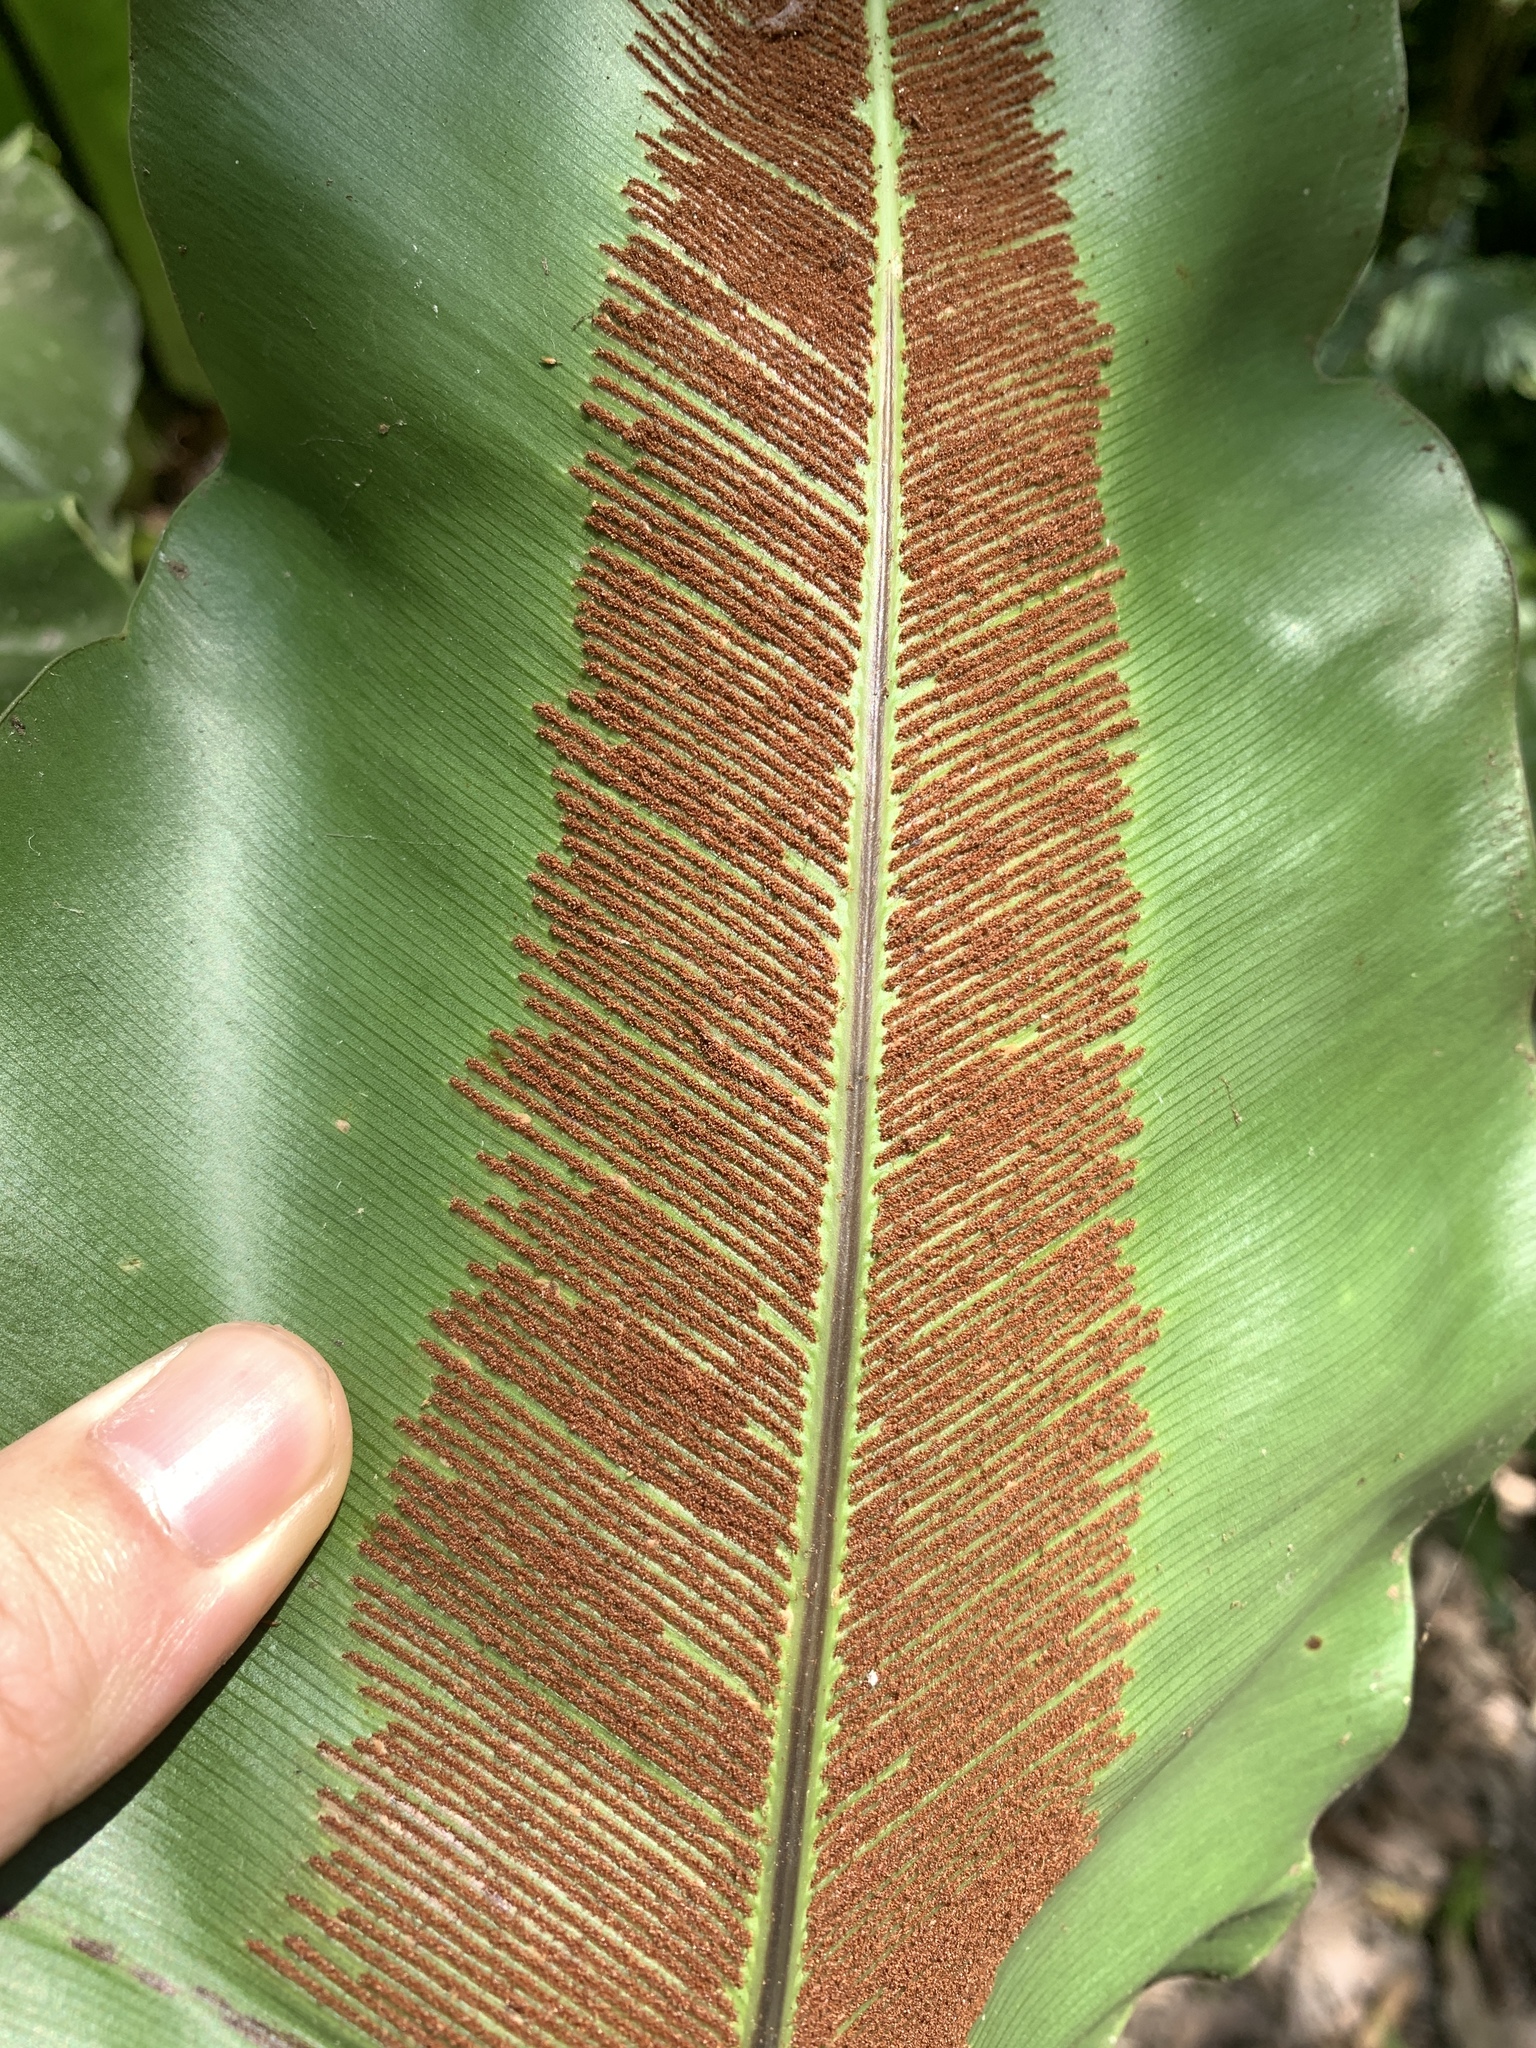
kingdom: Plantae
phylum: Tracheophyta
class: Polypodiopsida
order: Polypodiales
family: Aspleniaceae
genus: Asplenium
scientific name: Asplenium setoi
